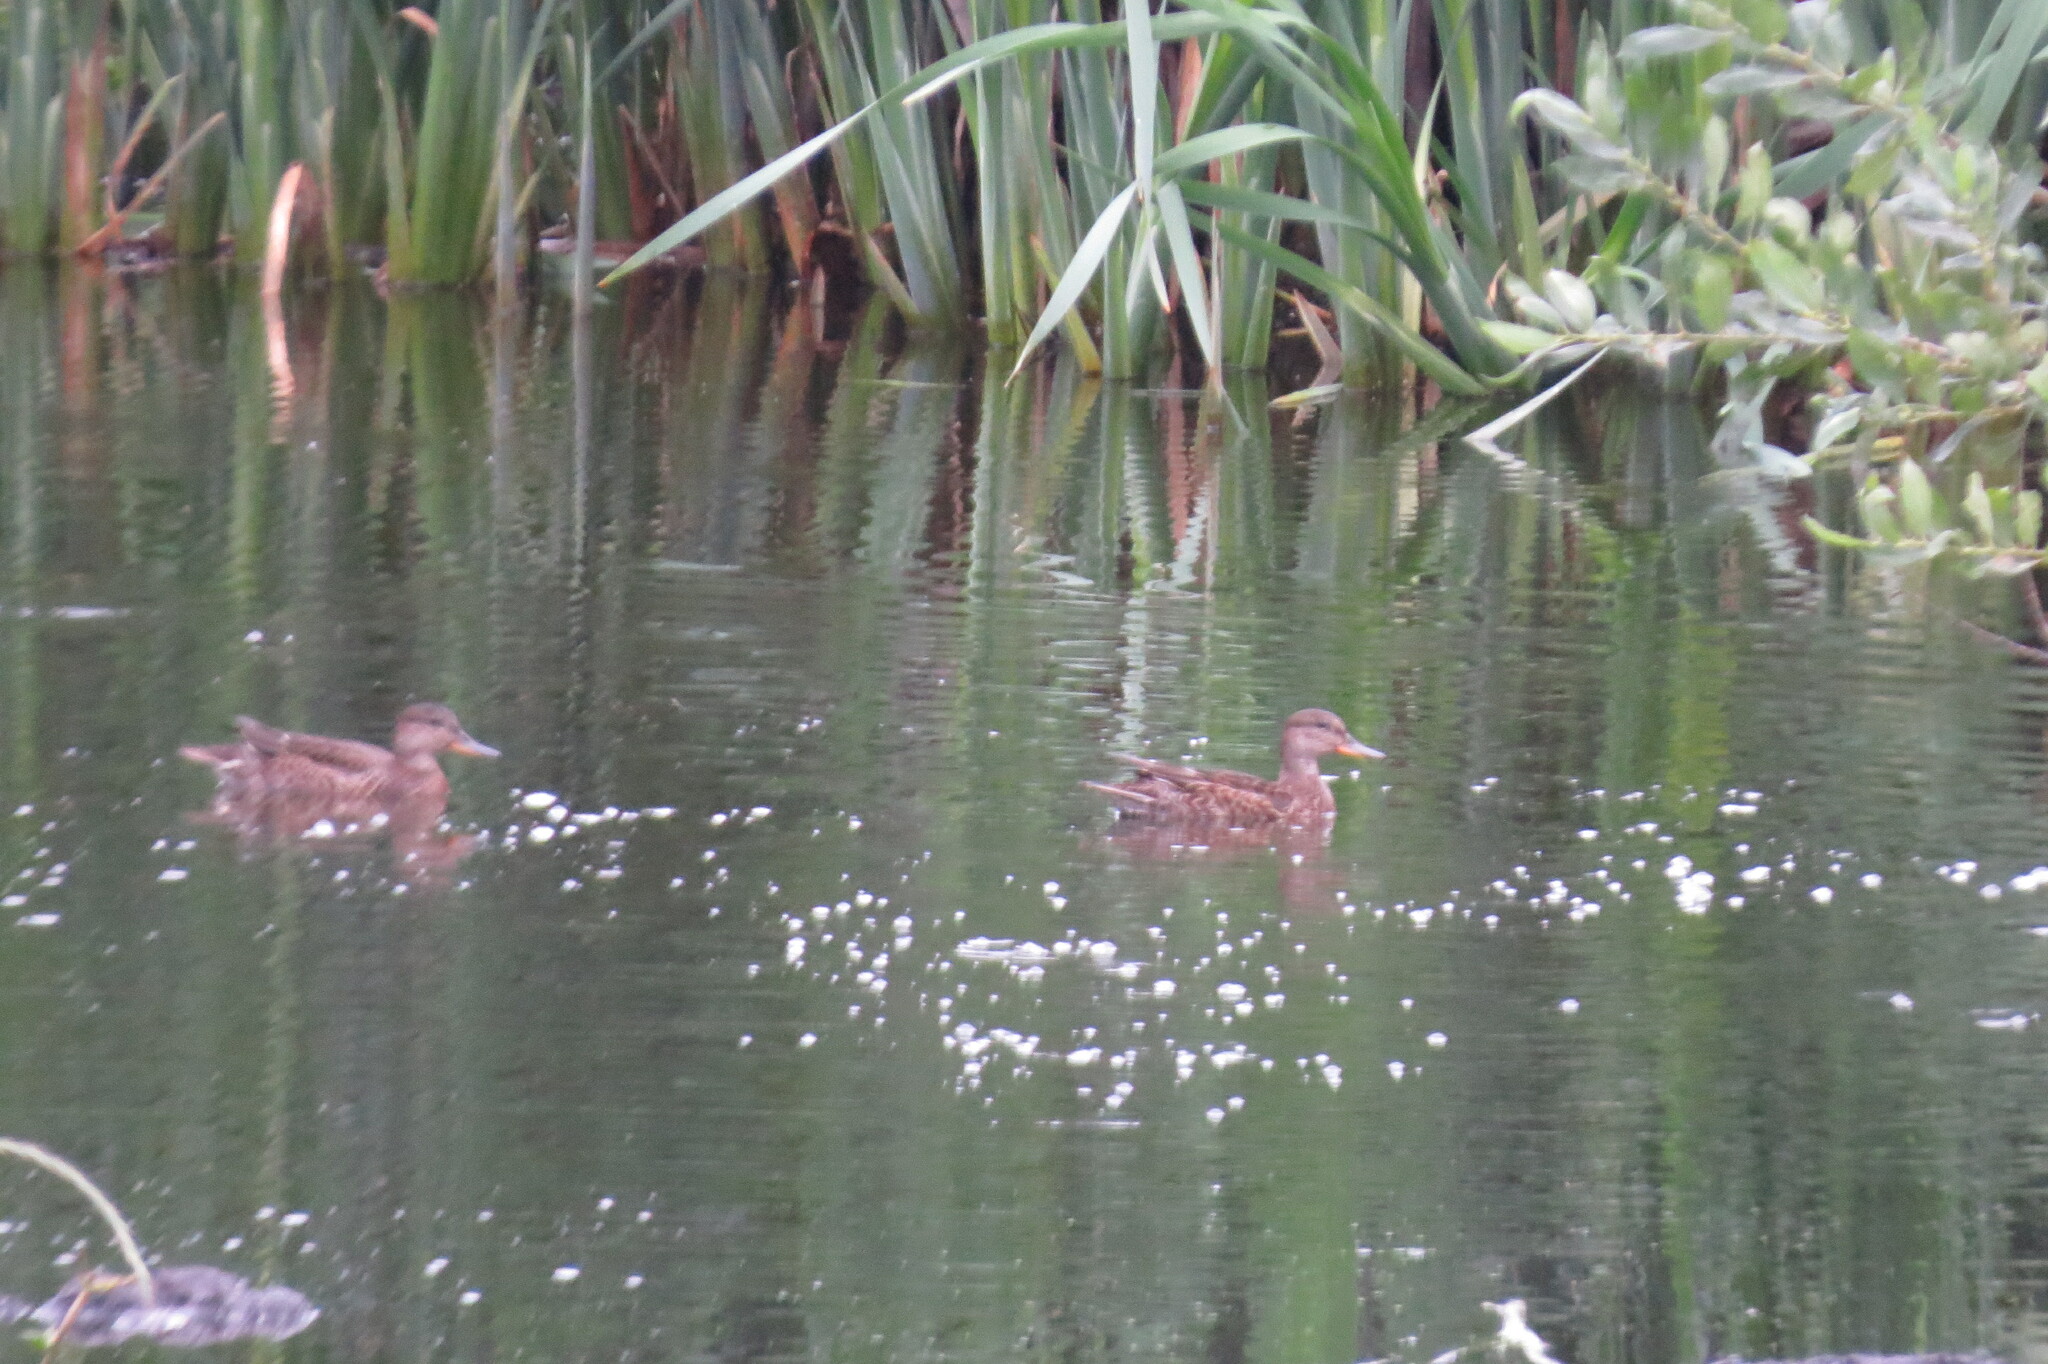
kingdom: Animalia
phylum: Chordata
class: Aves
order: Anseriformes
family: Anatidae
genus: Anas
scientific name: Anas platyrhynchos
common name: Mallard
